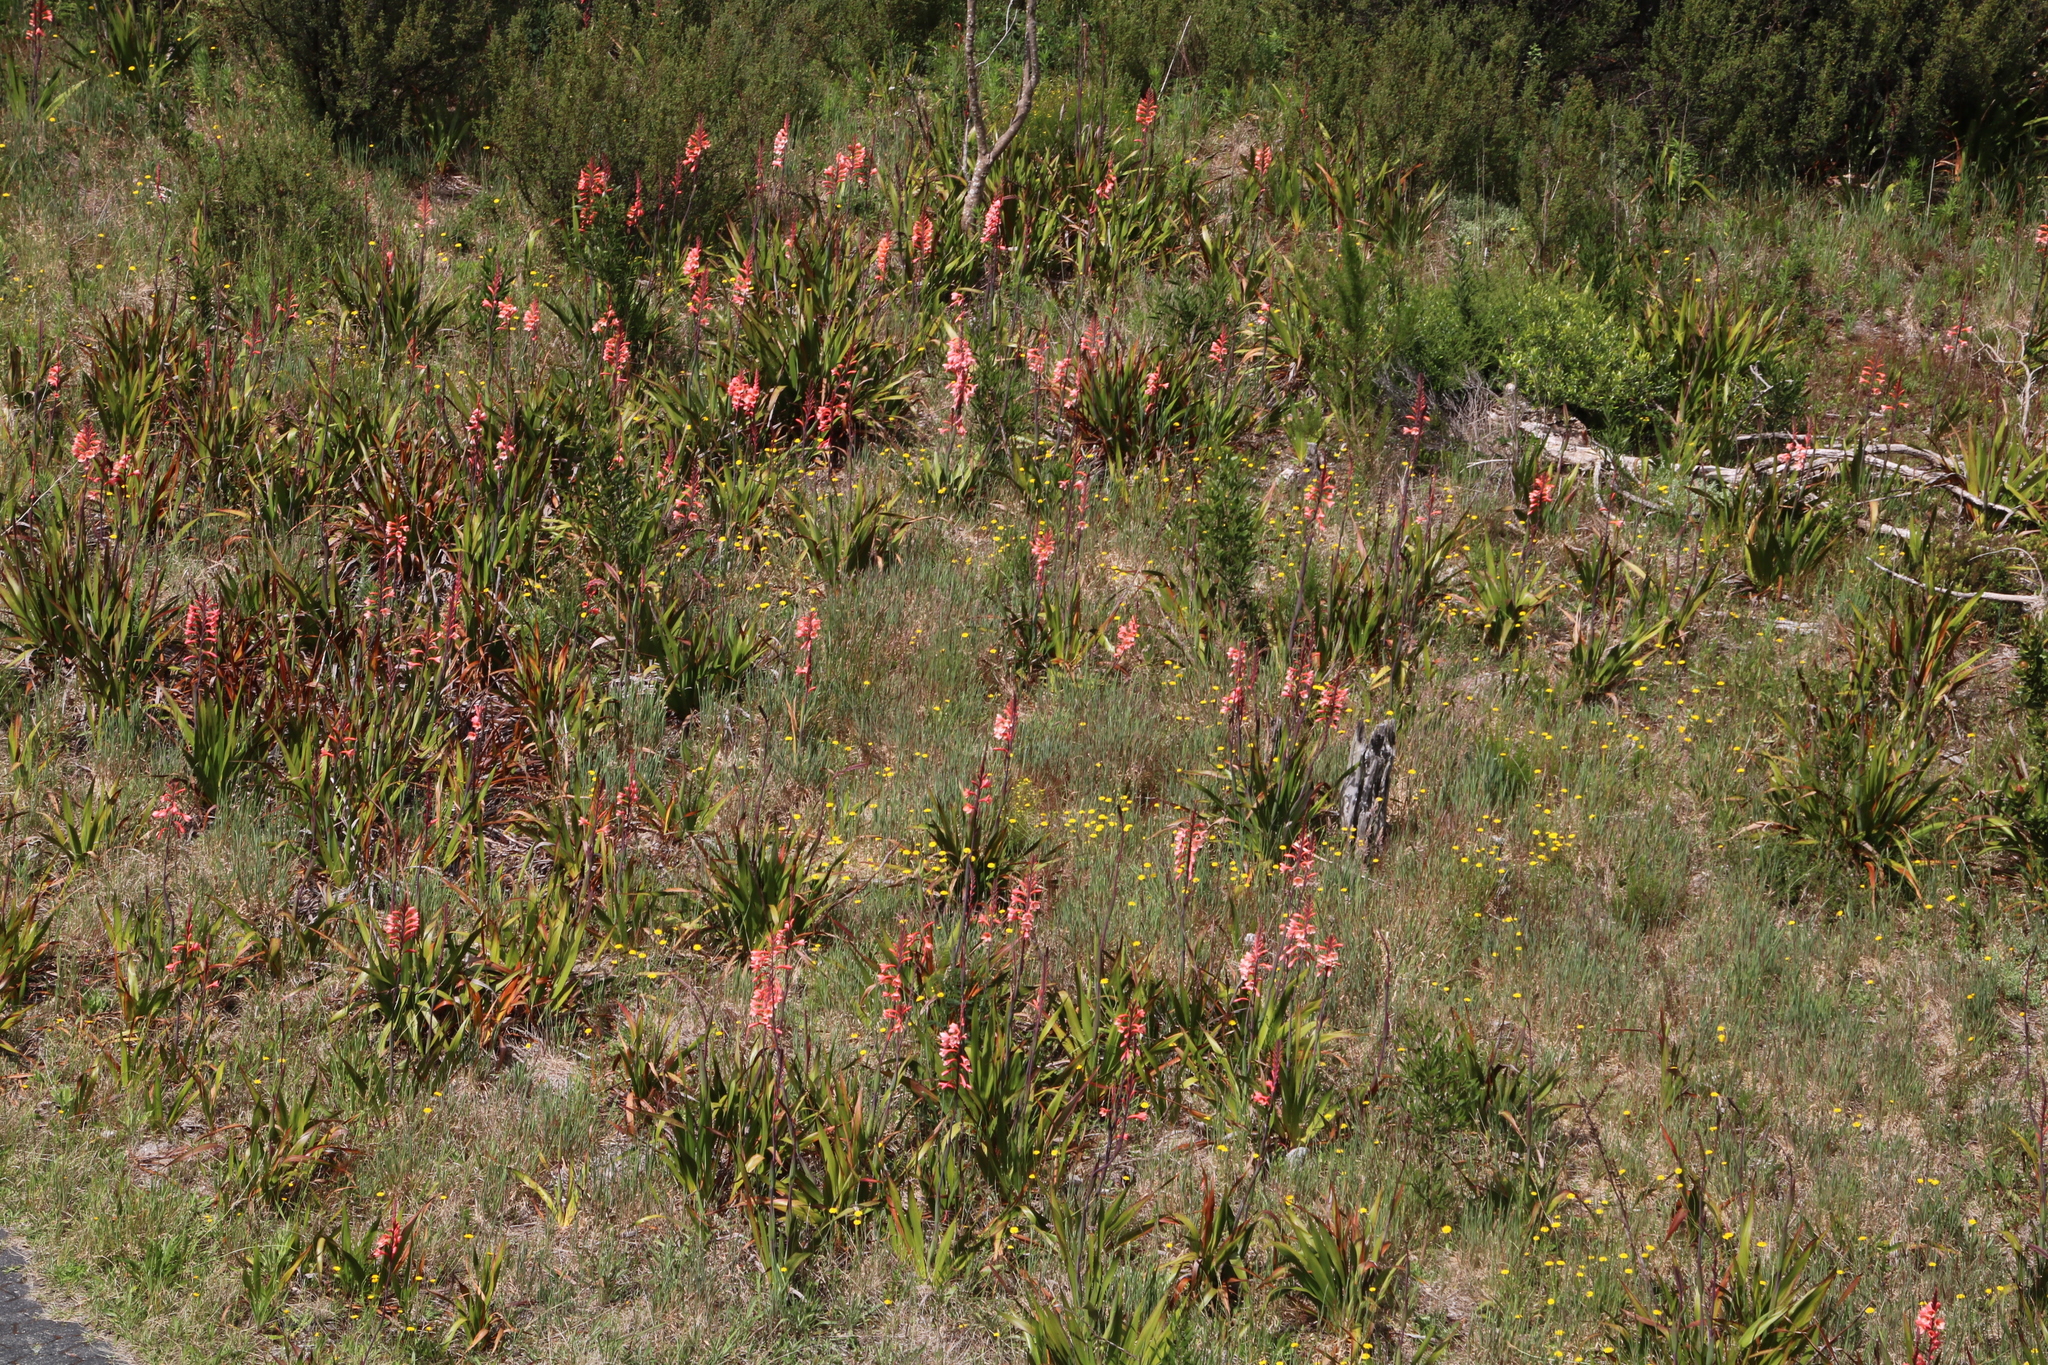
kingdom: Plantae
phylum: Tracheophyta
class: Liliopsida
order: Asparagales
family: Iridaceae
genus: Watsonia
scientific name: Watsonia tabularis
